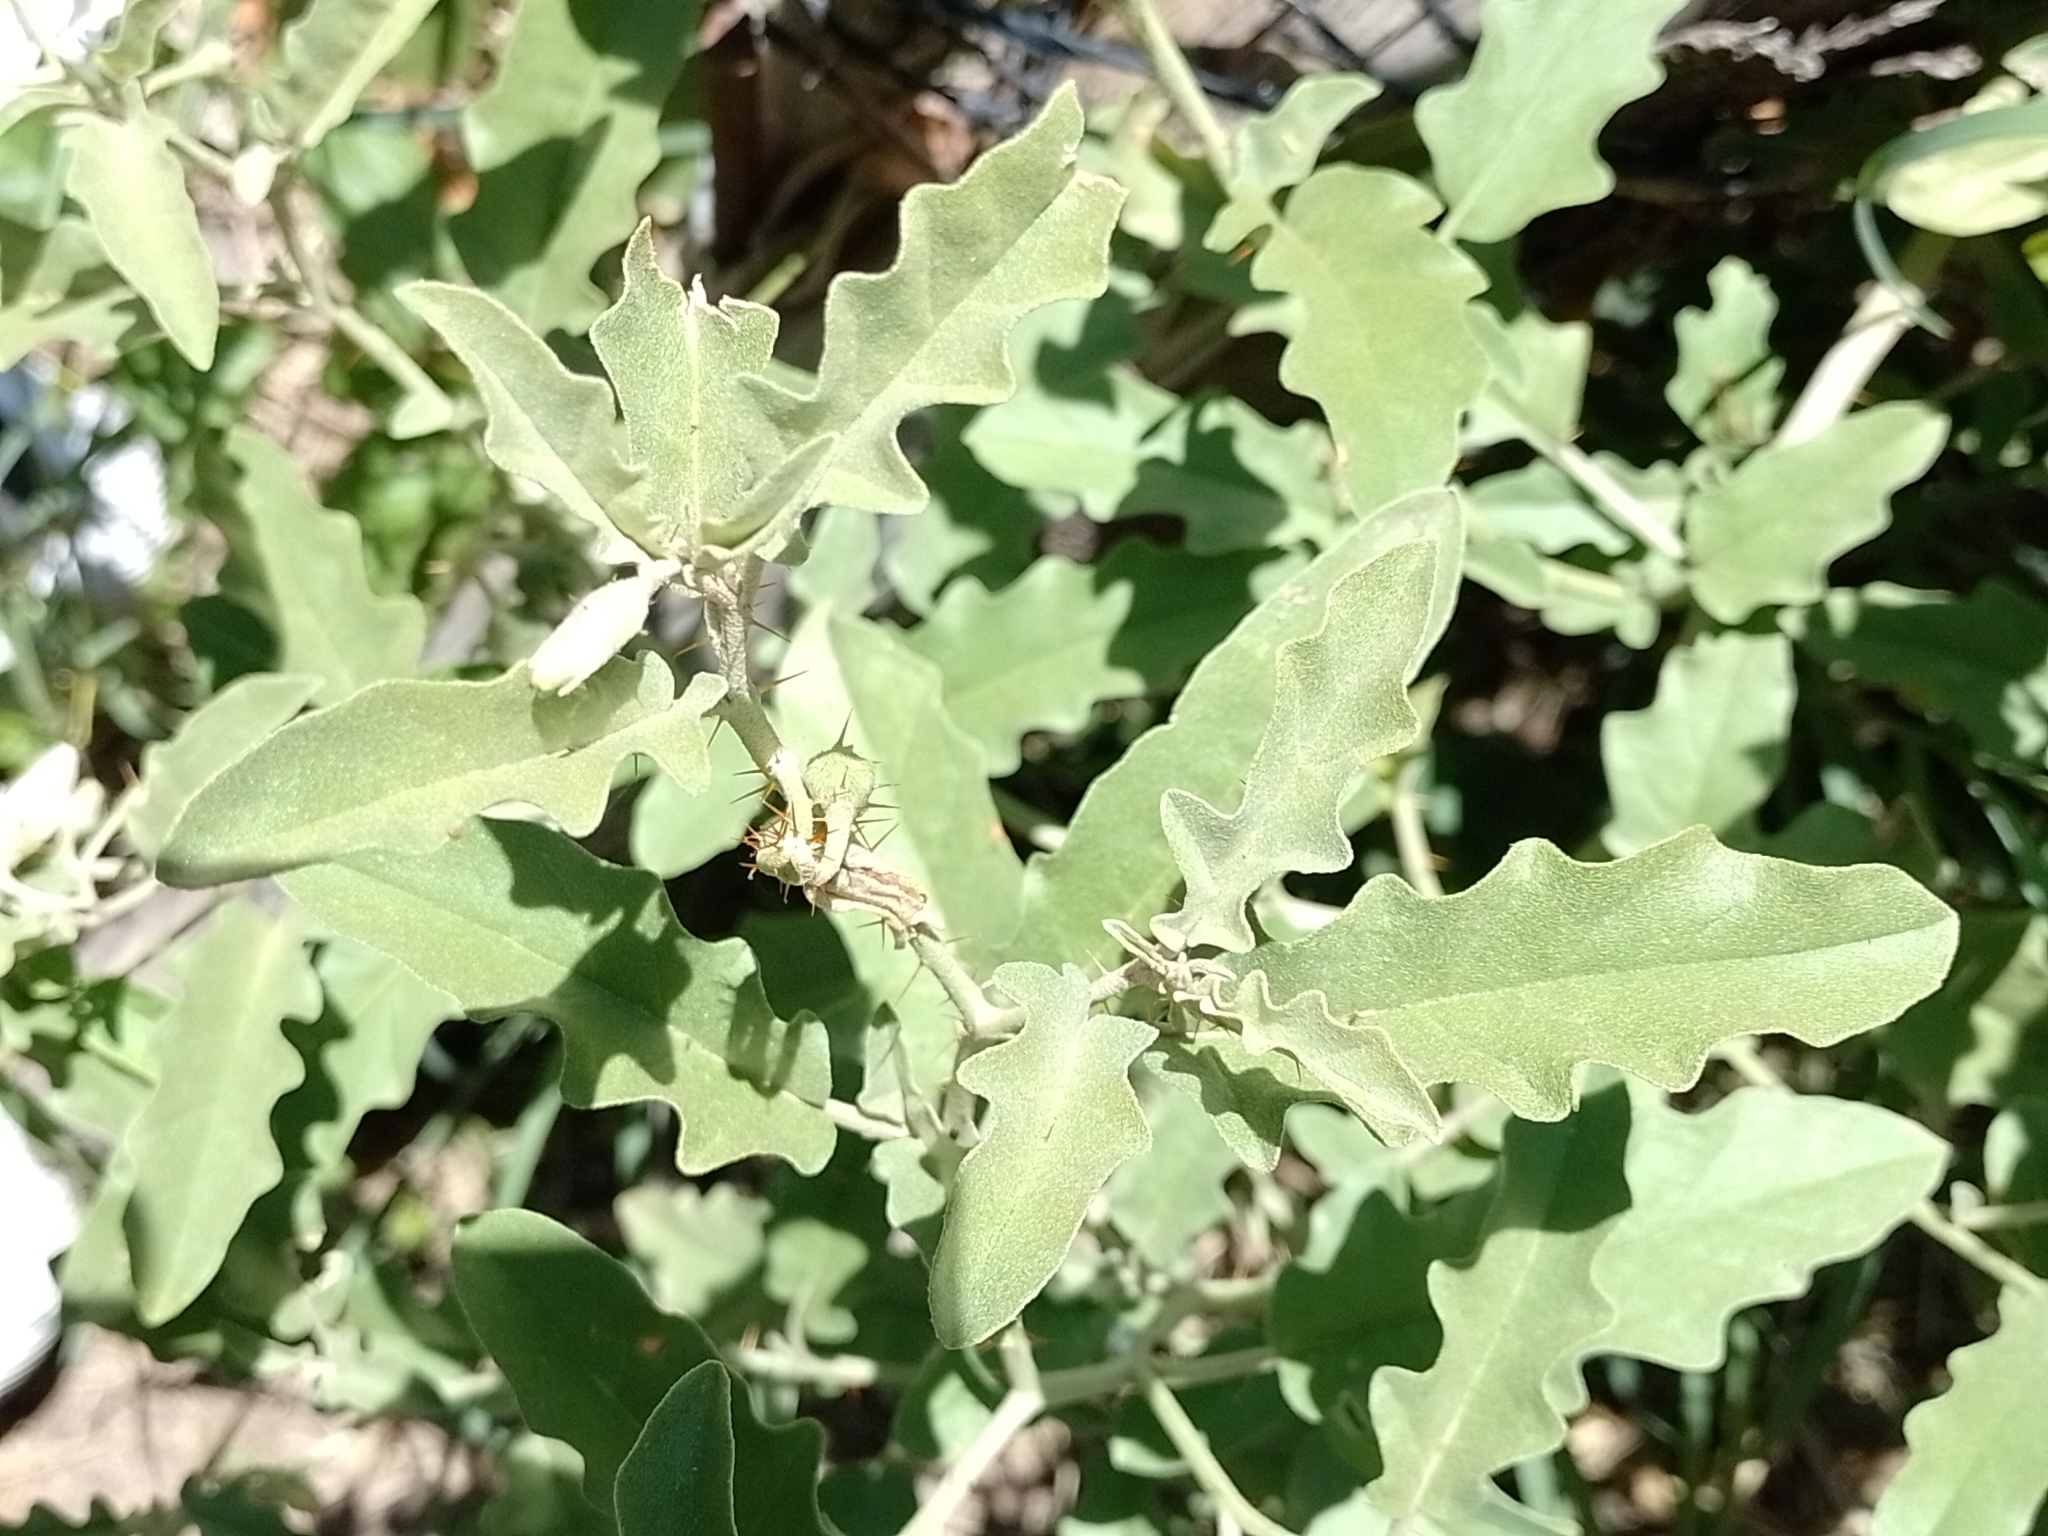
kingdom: Plantae
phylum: Tracheophyta
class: Magnoliopsida
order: Solanales
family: Solanaceae
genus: Solanum
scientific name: Solanum elaeagnifolium
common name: Silverleaf nightshade
